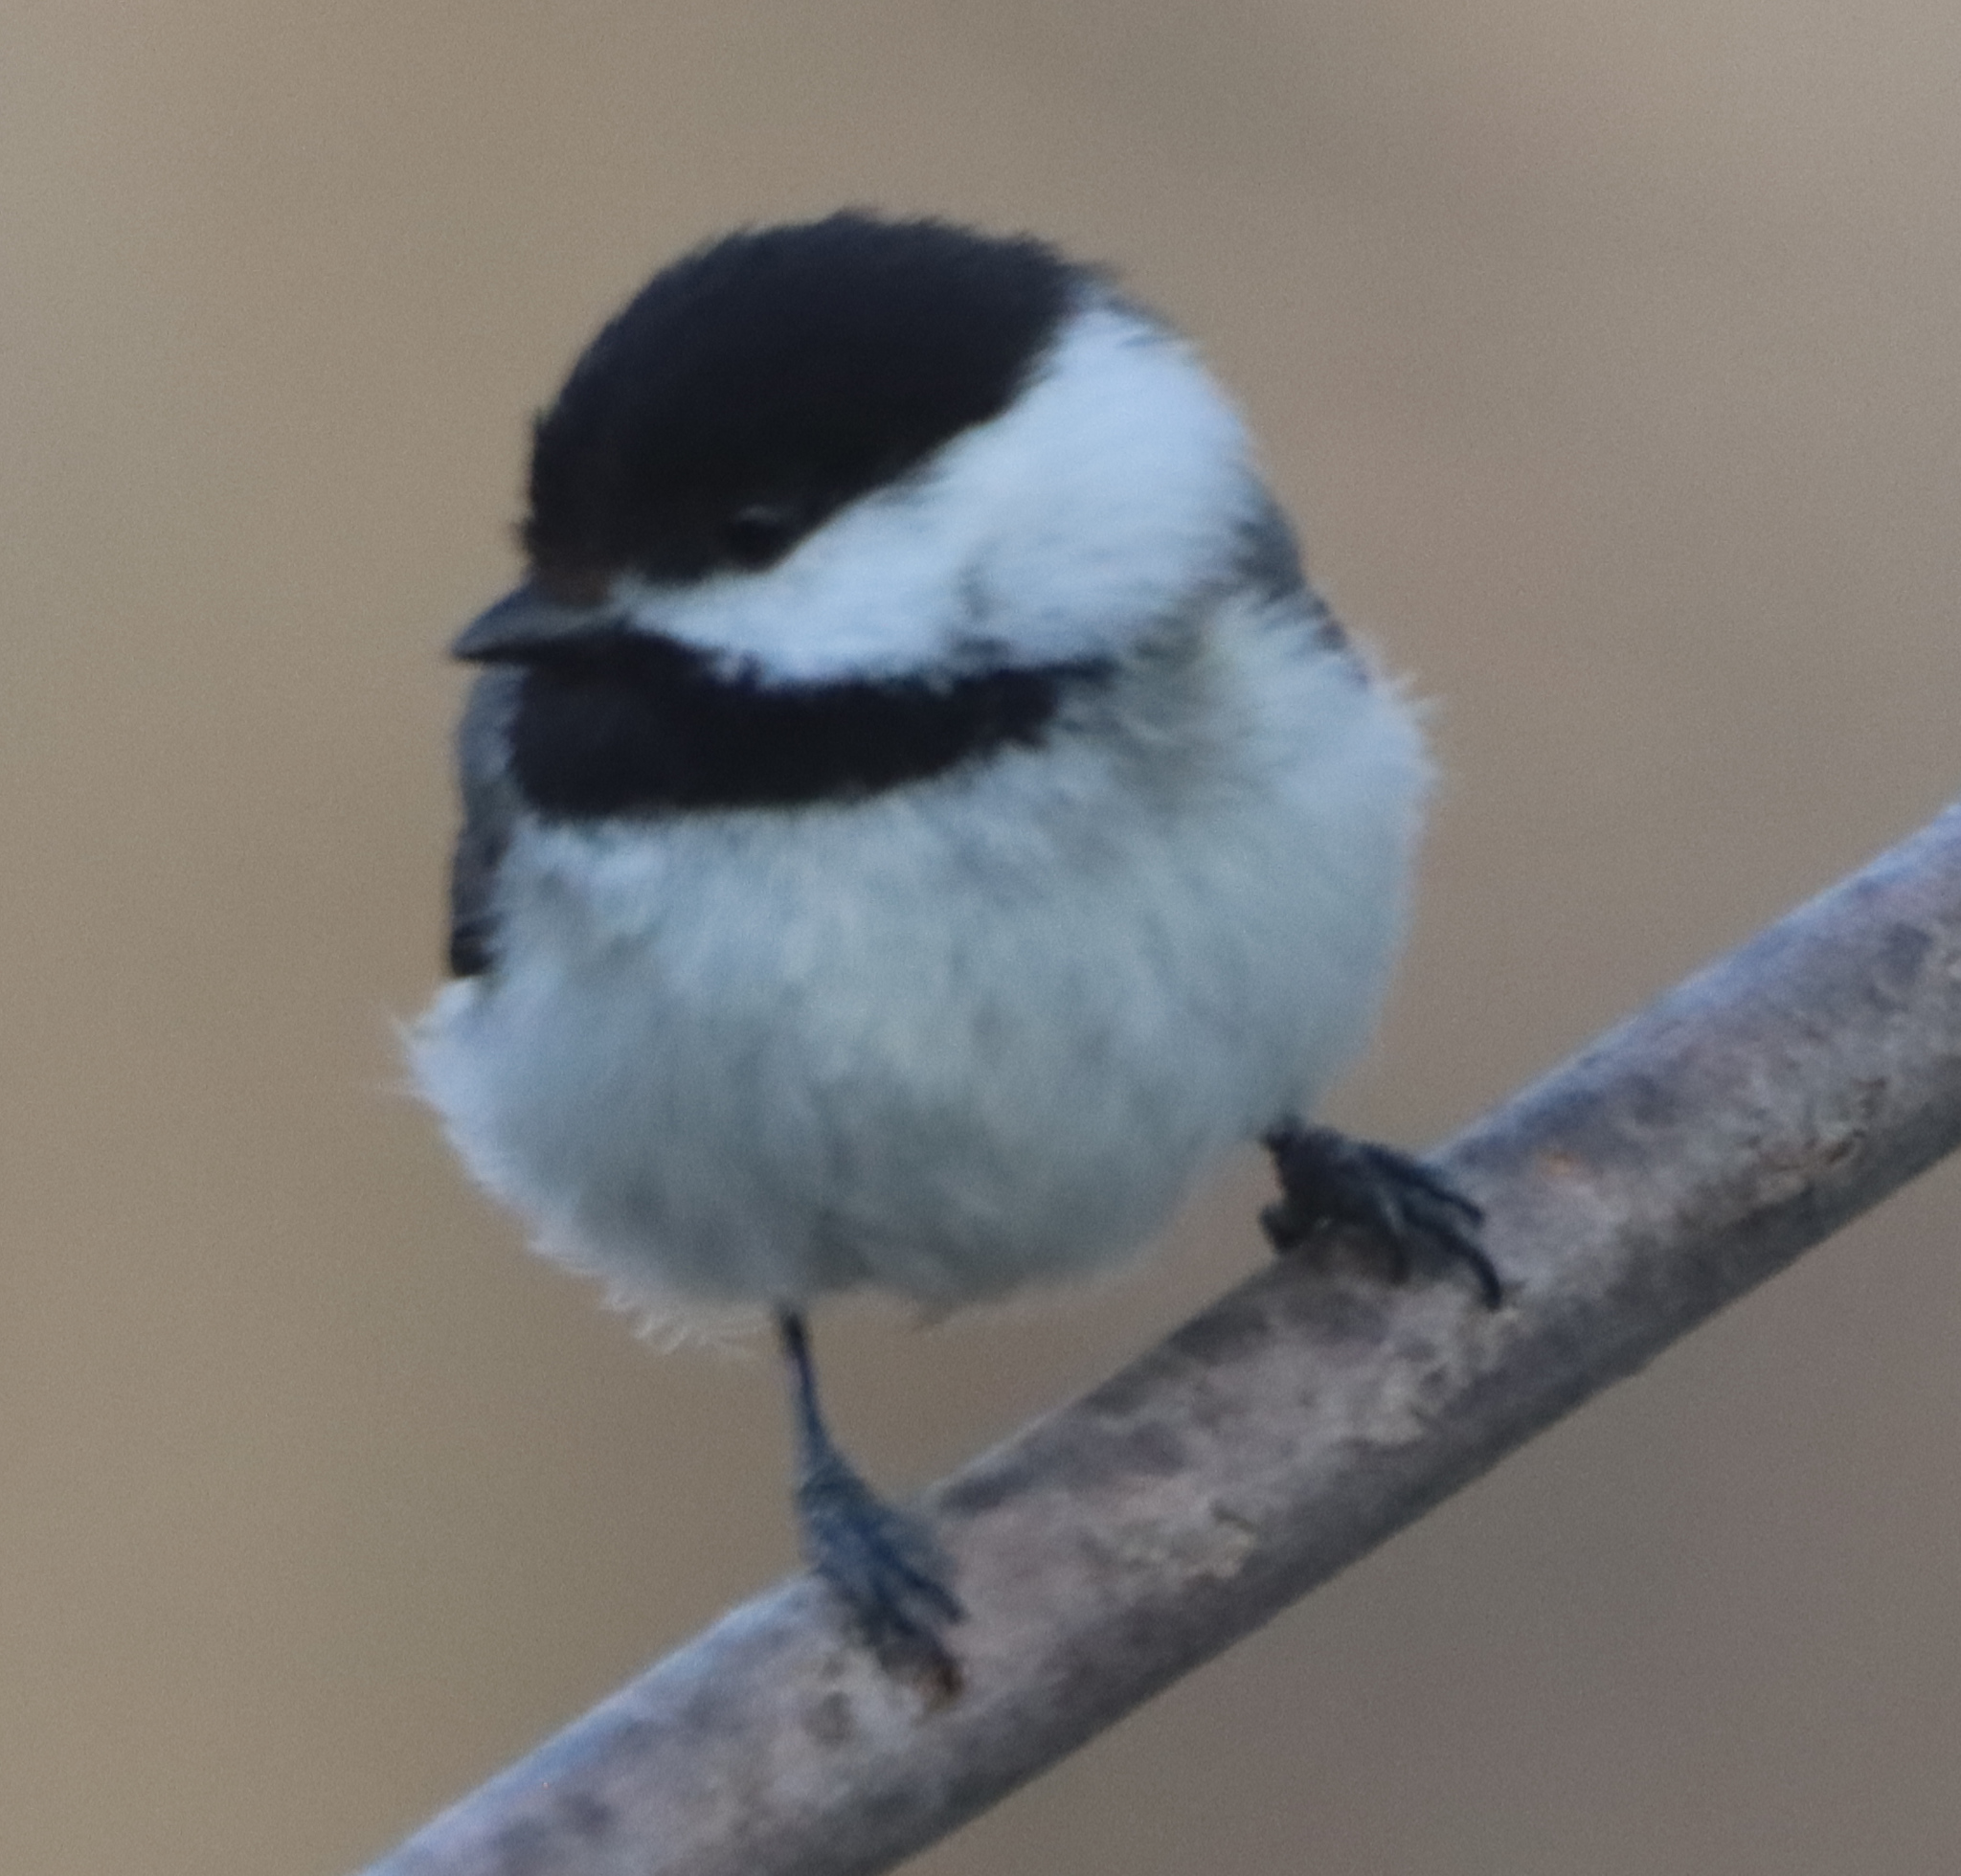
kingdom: Animalia
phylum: Chordata
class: Aves
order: Passeriformes
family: Paridae
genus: Poecile
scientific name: Poecile atricapillus
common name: Black-capped chickadee
